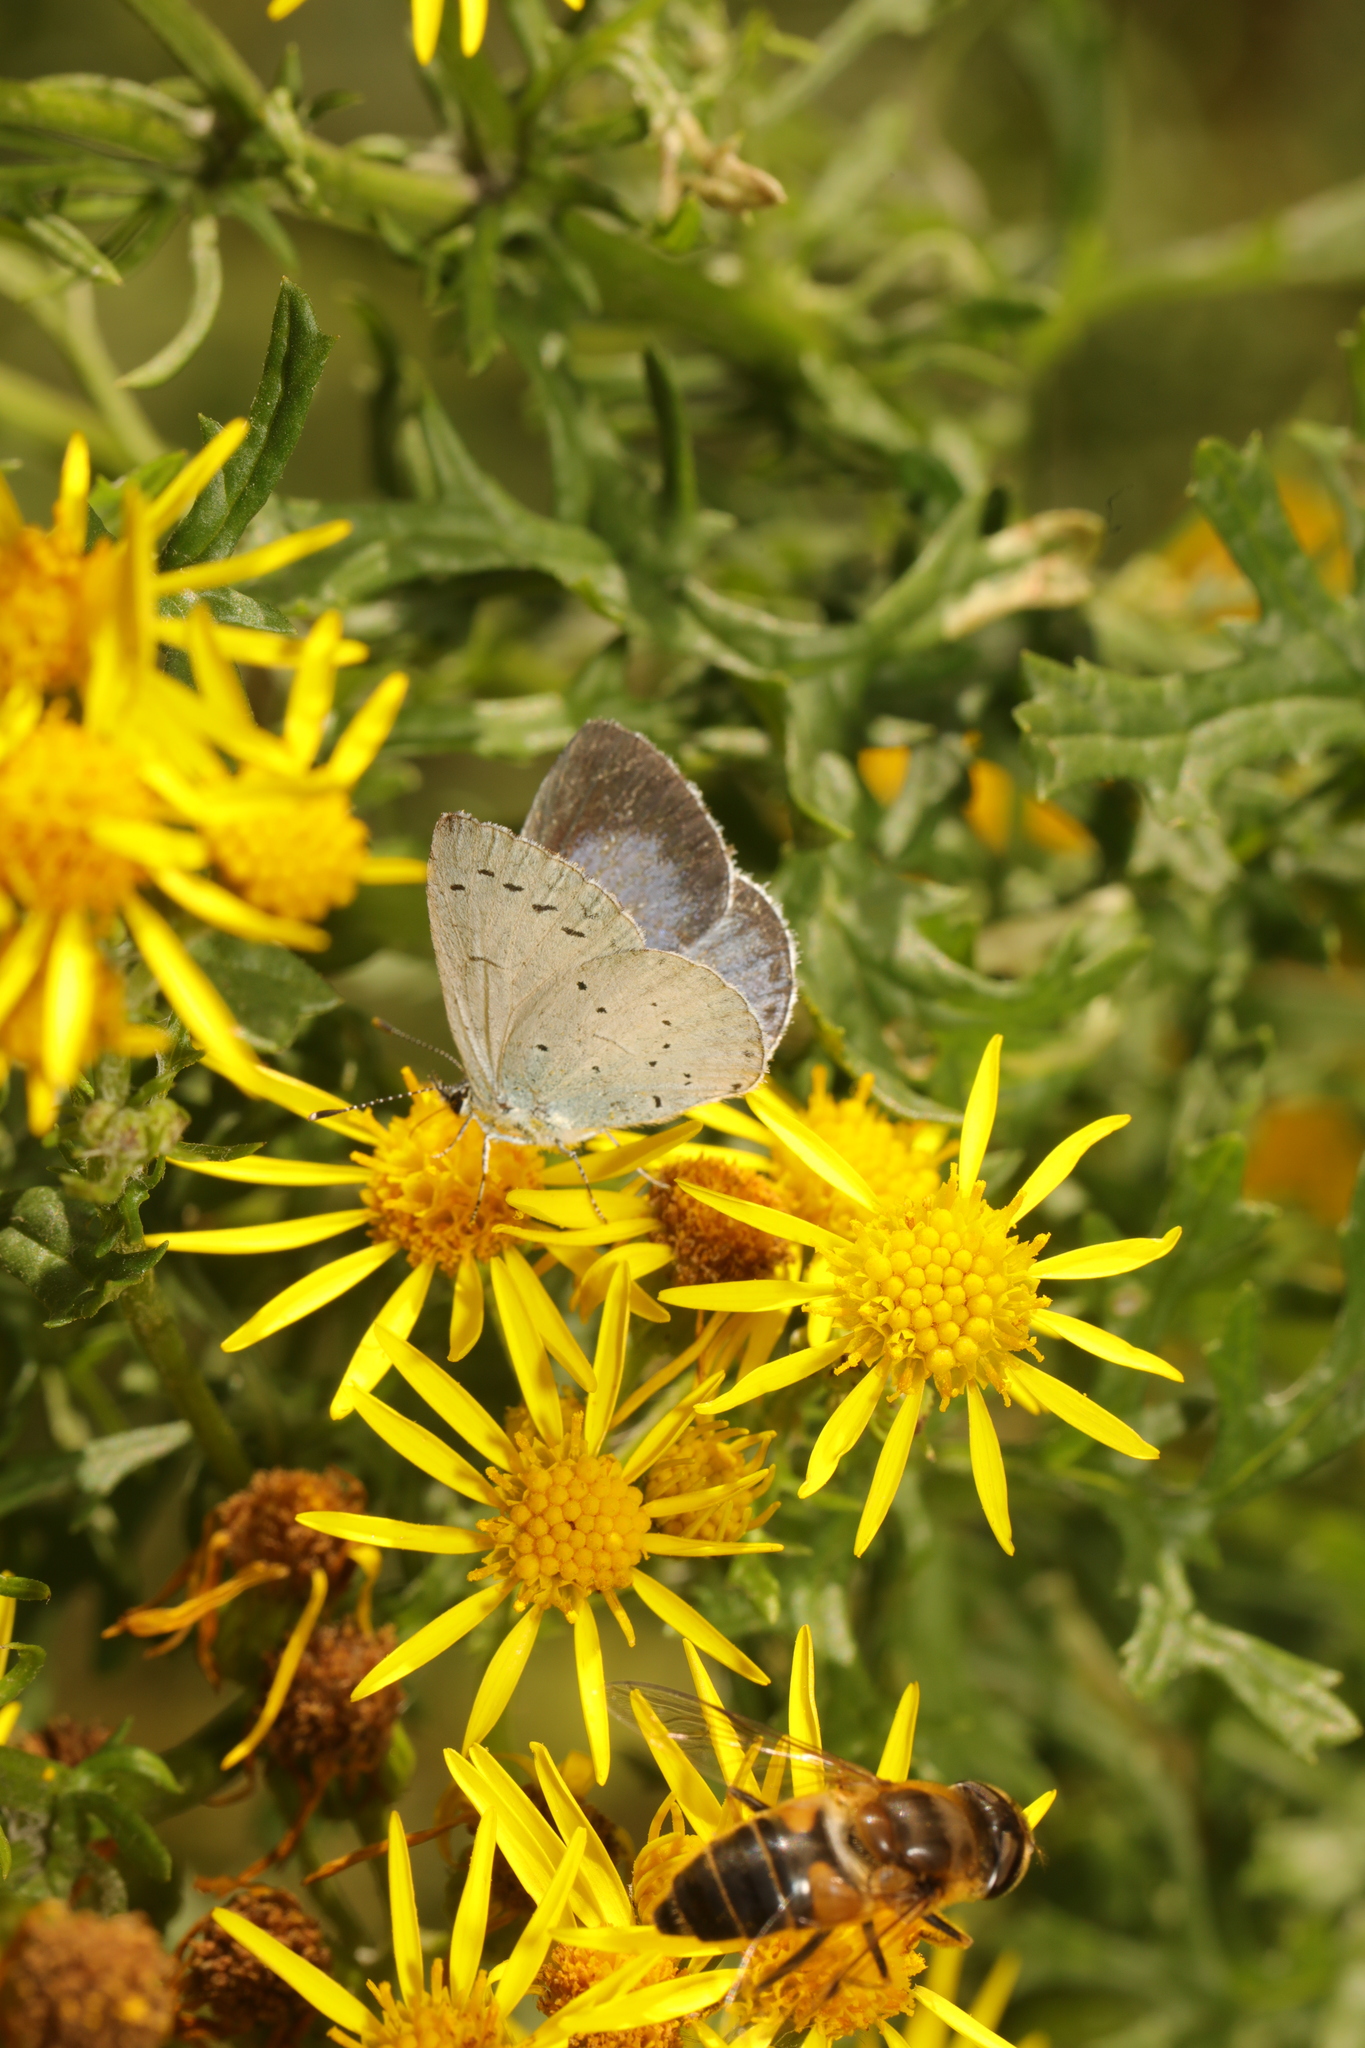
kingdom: Animalia
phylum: Arthropoda
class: Insecta
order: Lepidoptera
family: Lycaenidae
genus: Celastrina
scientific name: Celastrina argiolus
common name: Holly blue
